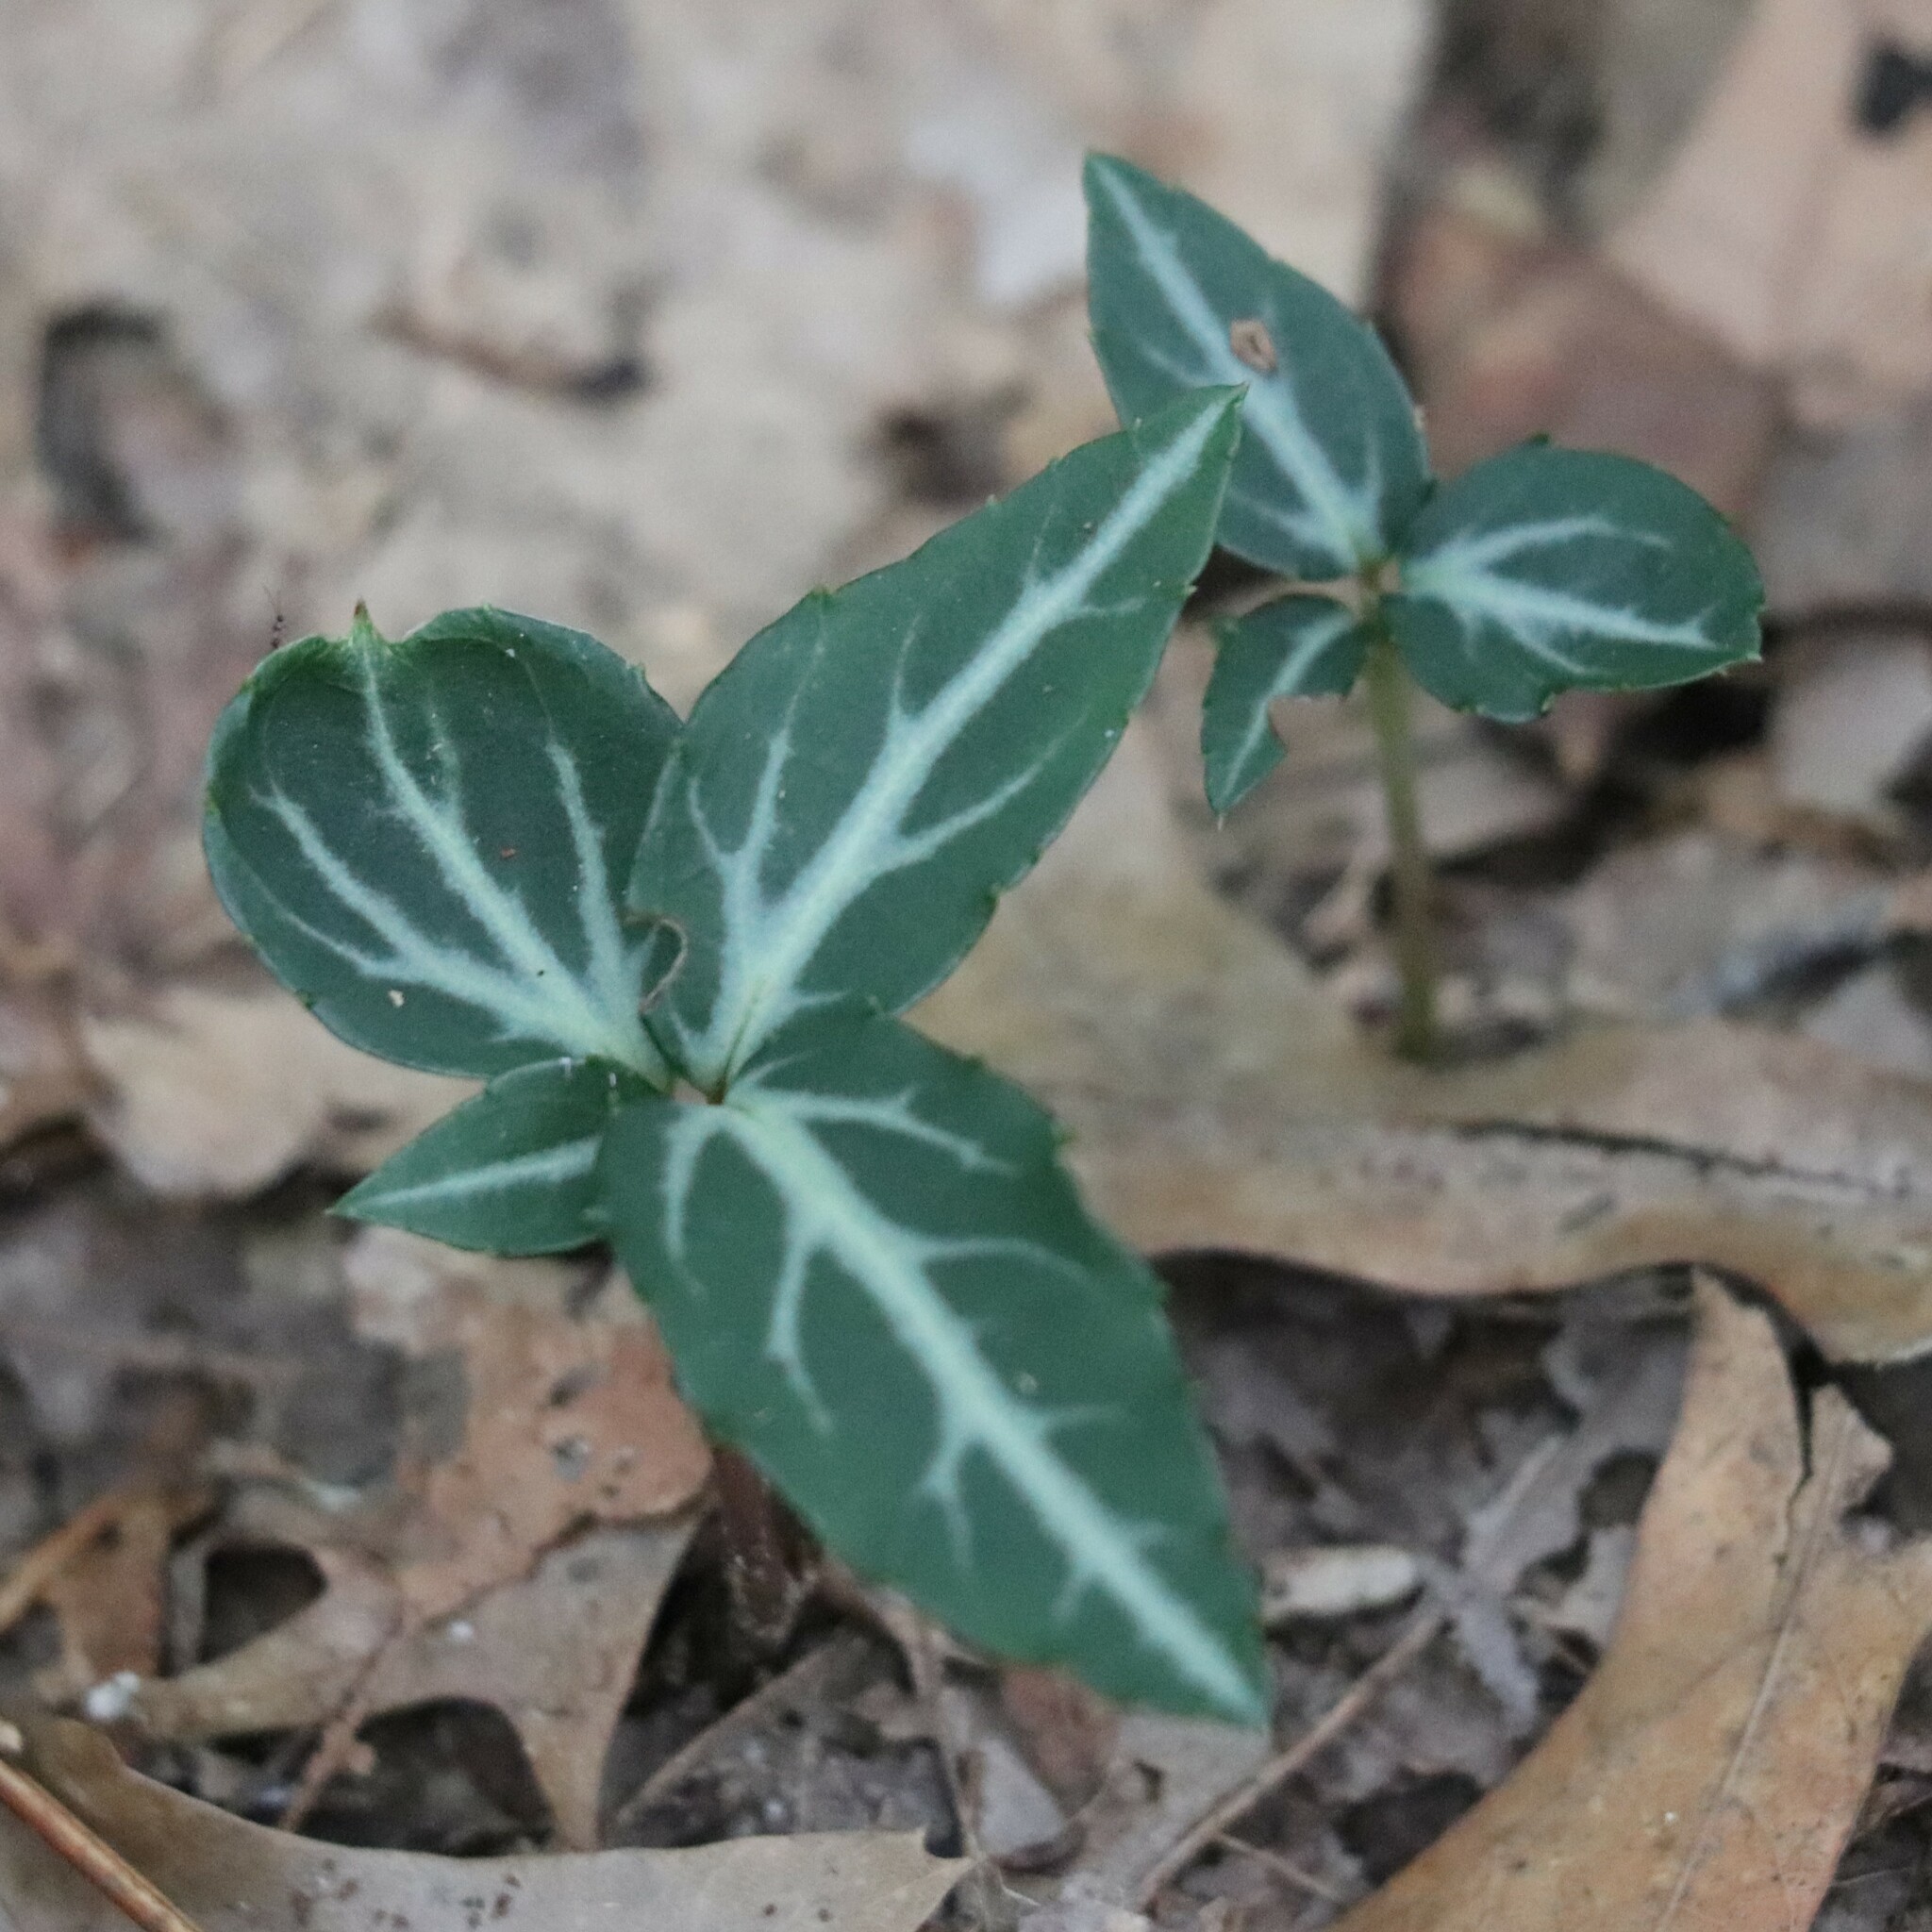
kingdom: Plantae
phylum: Tracheophyta
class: Magnoliopsida
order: Ericales
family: Ericaceae
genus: Chimaphila
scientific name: Chimaphila maculata
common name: Spotted pipsissewa
